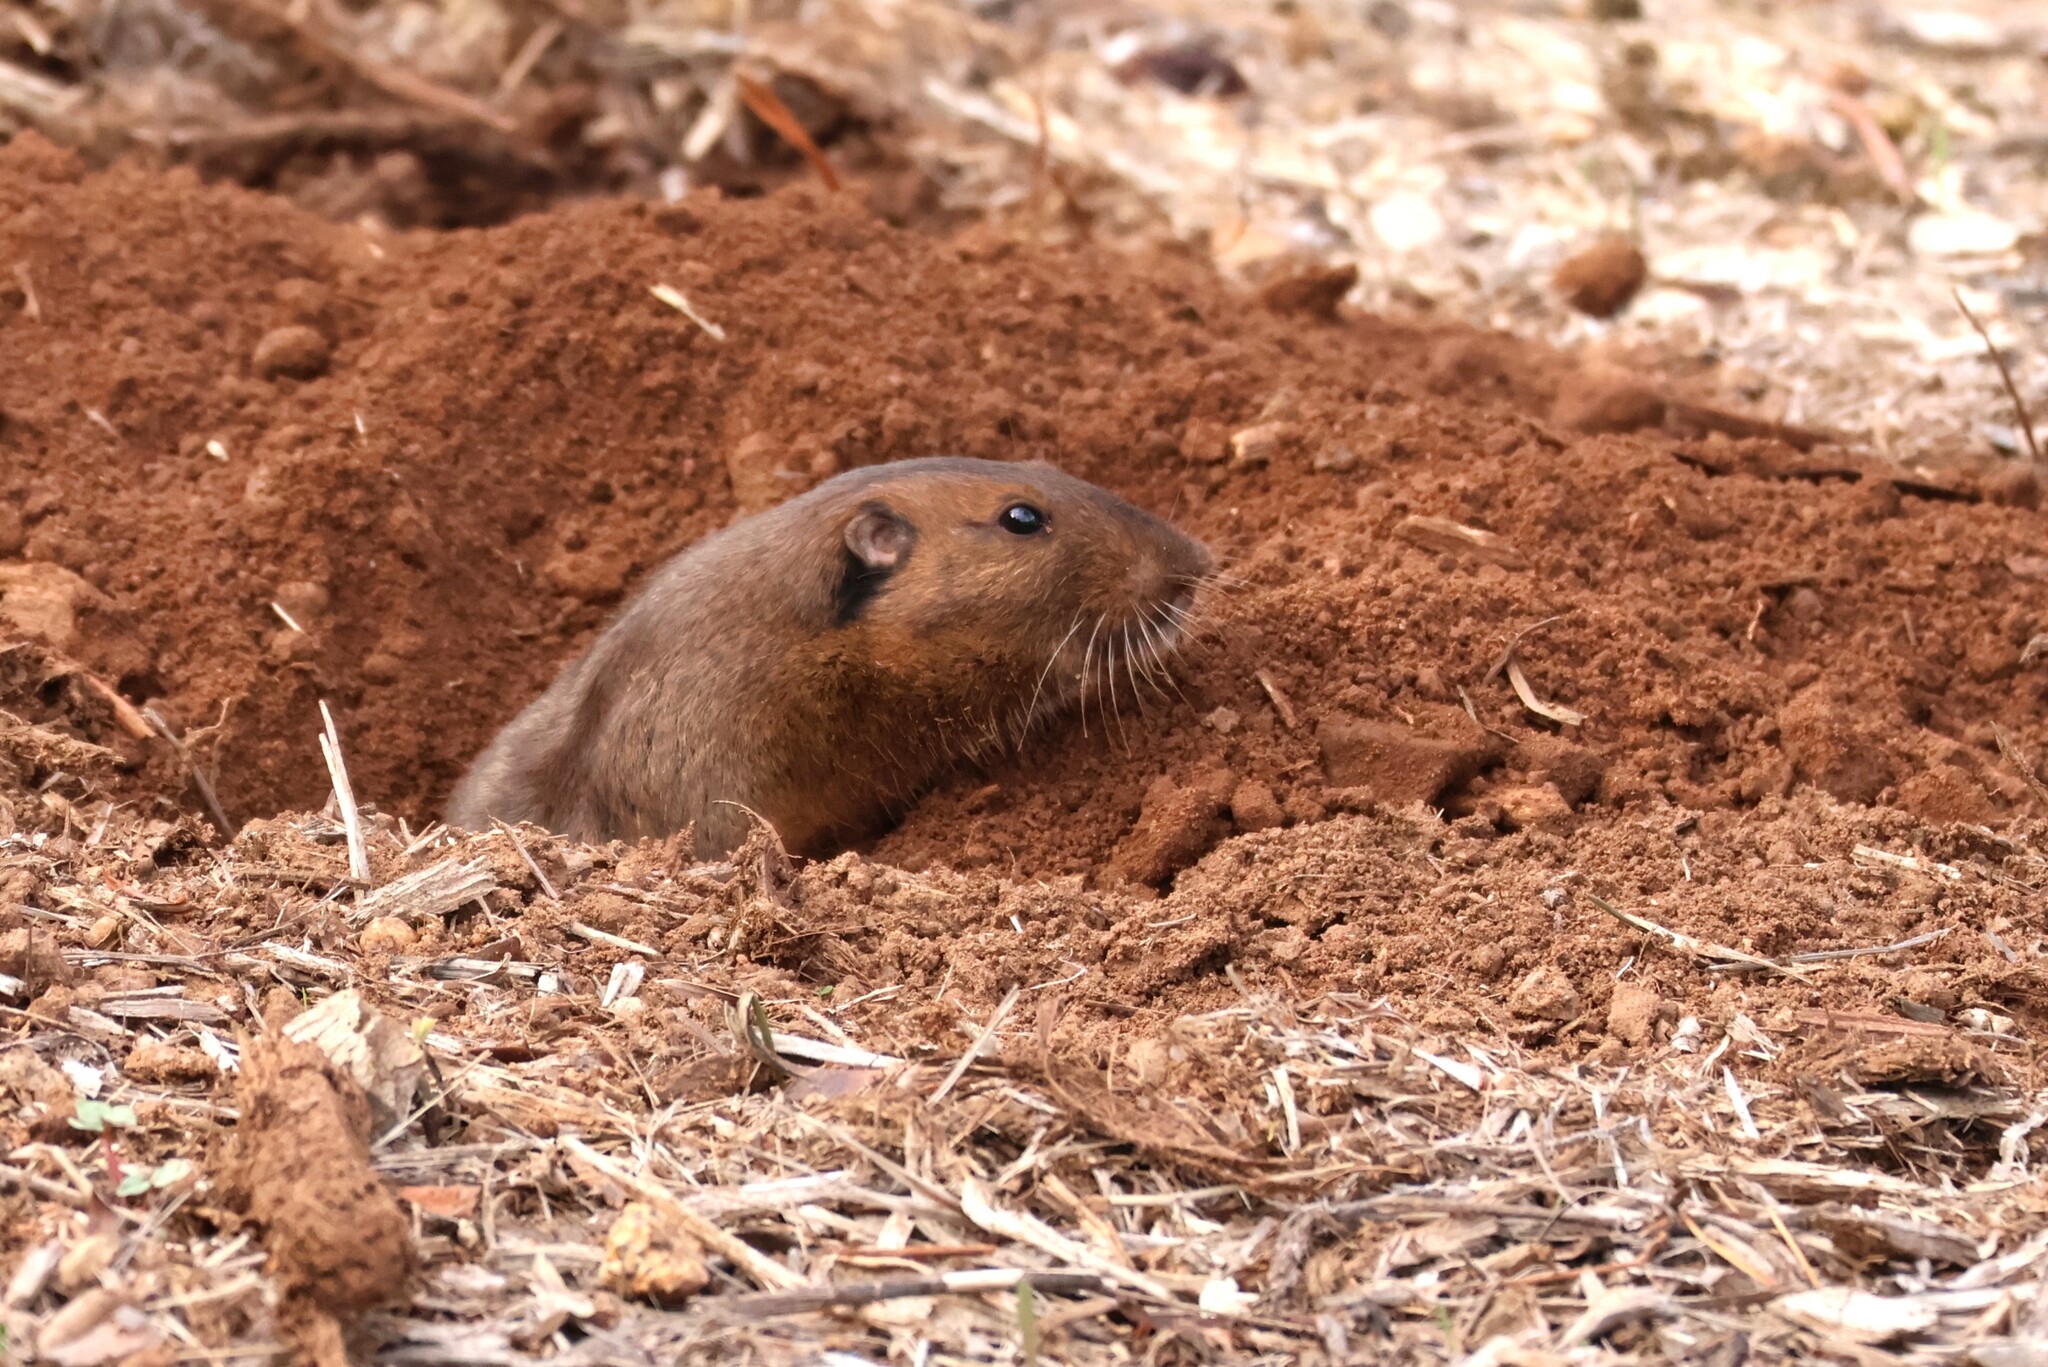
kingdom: Animalia
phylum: Chordata
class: Mammalia
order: Rodentia
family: Geomyidae
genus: Thomomys
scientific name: Thomomys bottae
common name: Botta's pocket gopher
